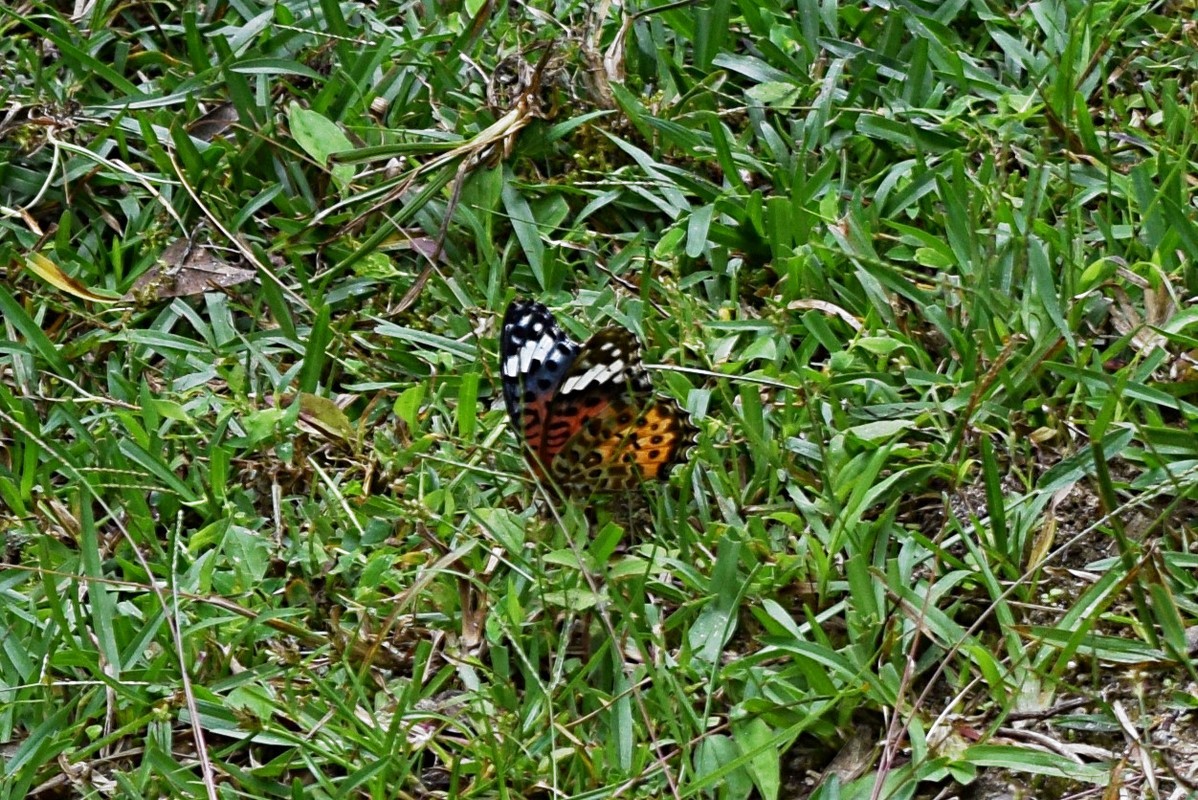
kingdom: Animalia
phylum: Arthropoda
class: Insecta
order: Lepidoptera
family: Nymphalidae
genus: Argynnis
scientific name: Argynnis hyperbius
